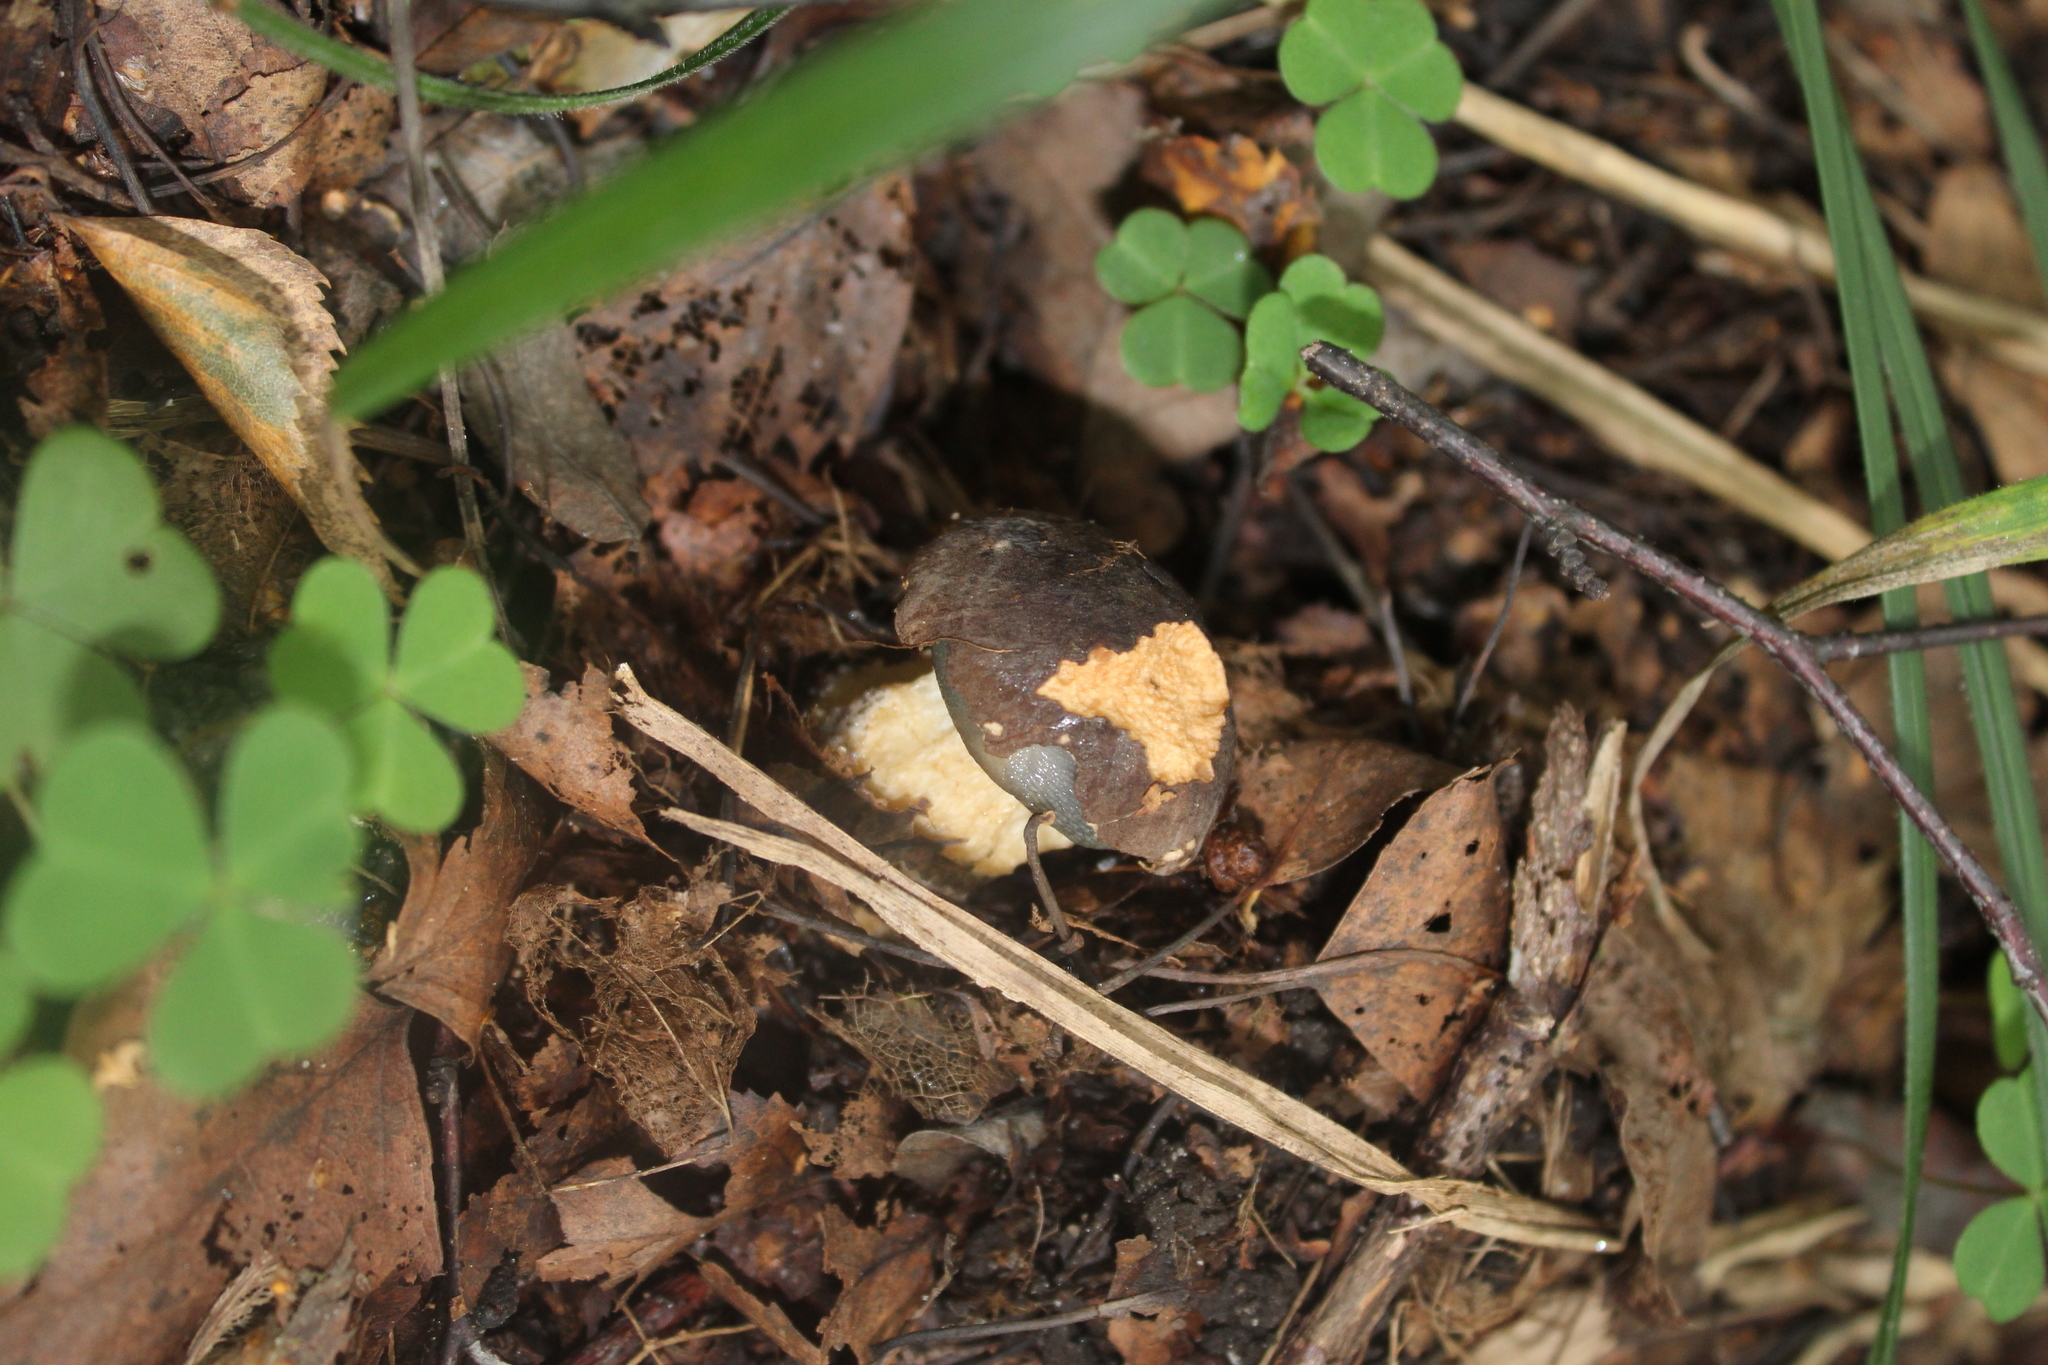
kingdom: Fungi
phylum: Basidiomycota
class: Agaricomycetes
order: Boletales
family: Boletaceae
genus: Xerocomellus
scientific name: Xerocomellus pruinatus
